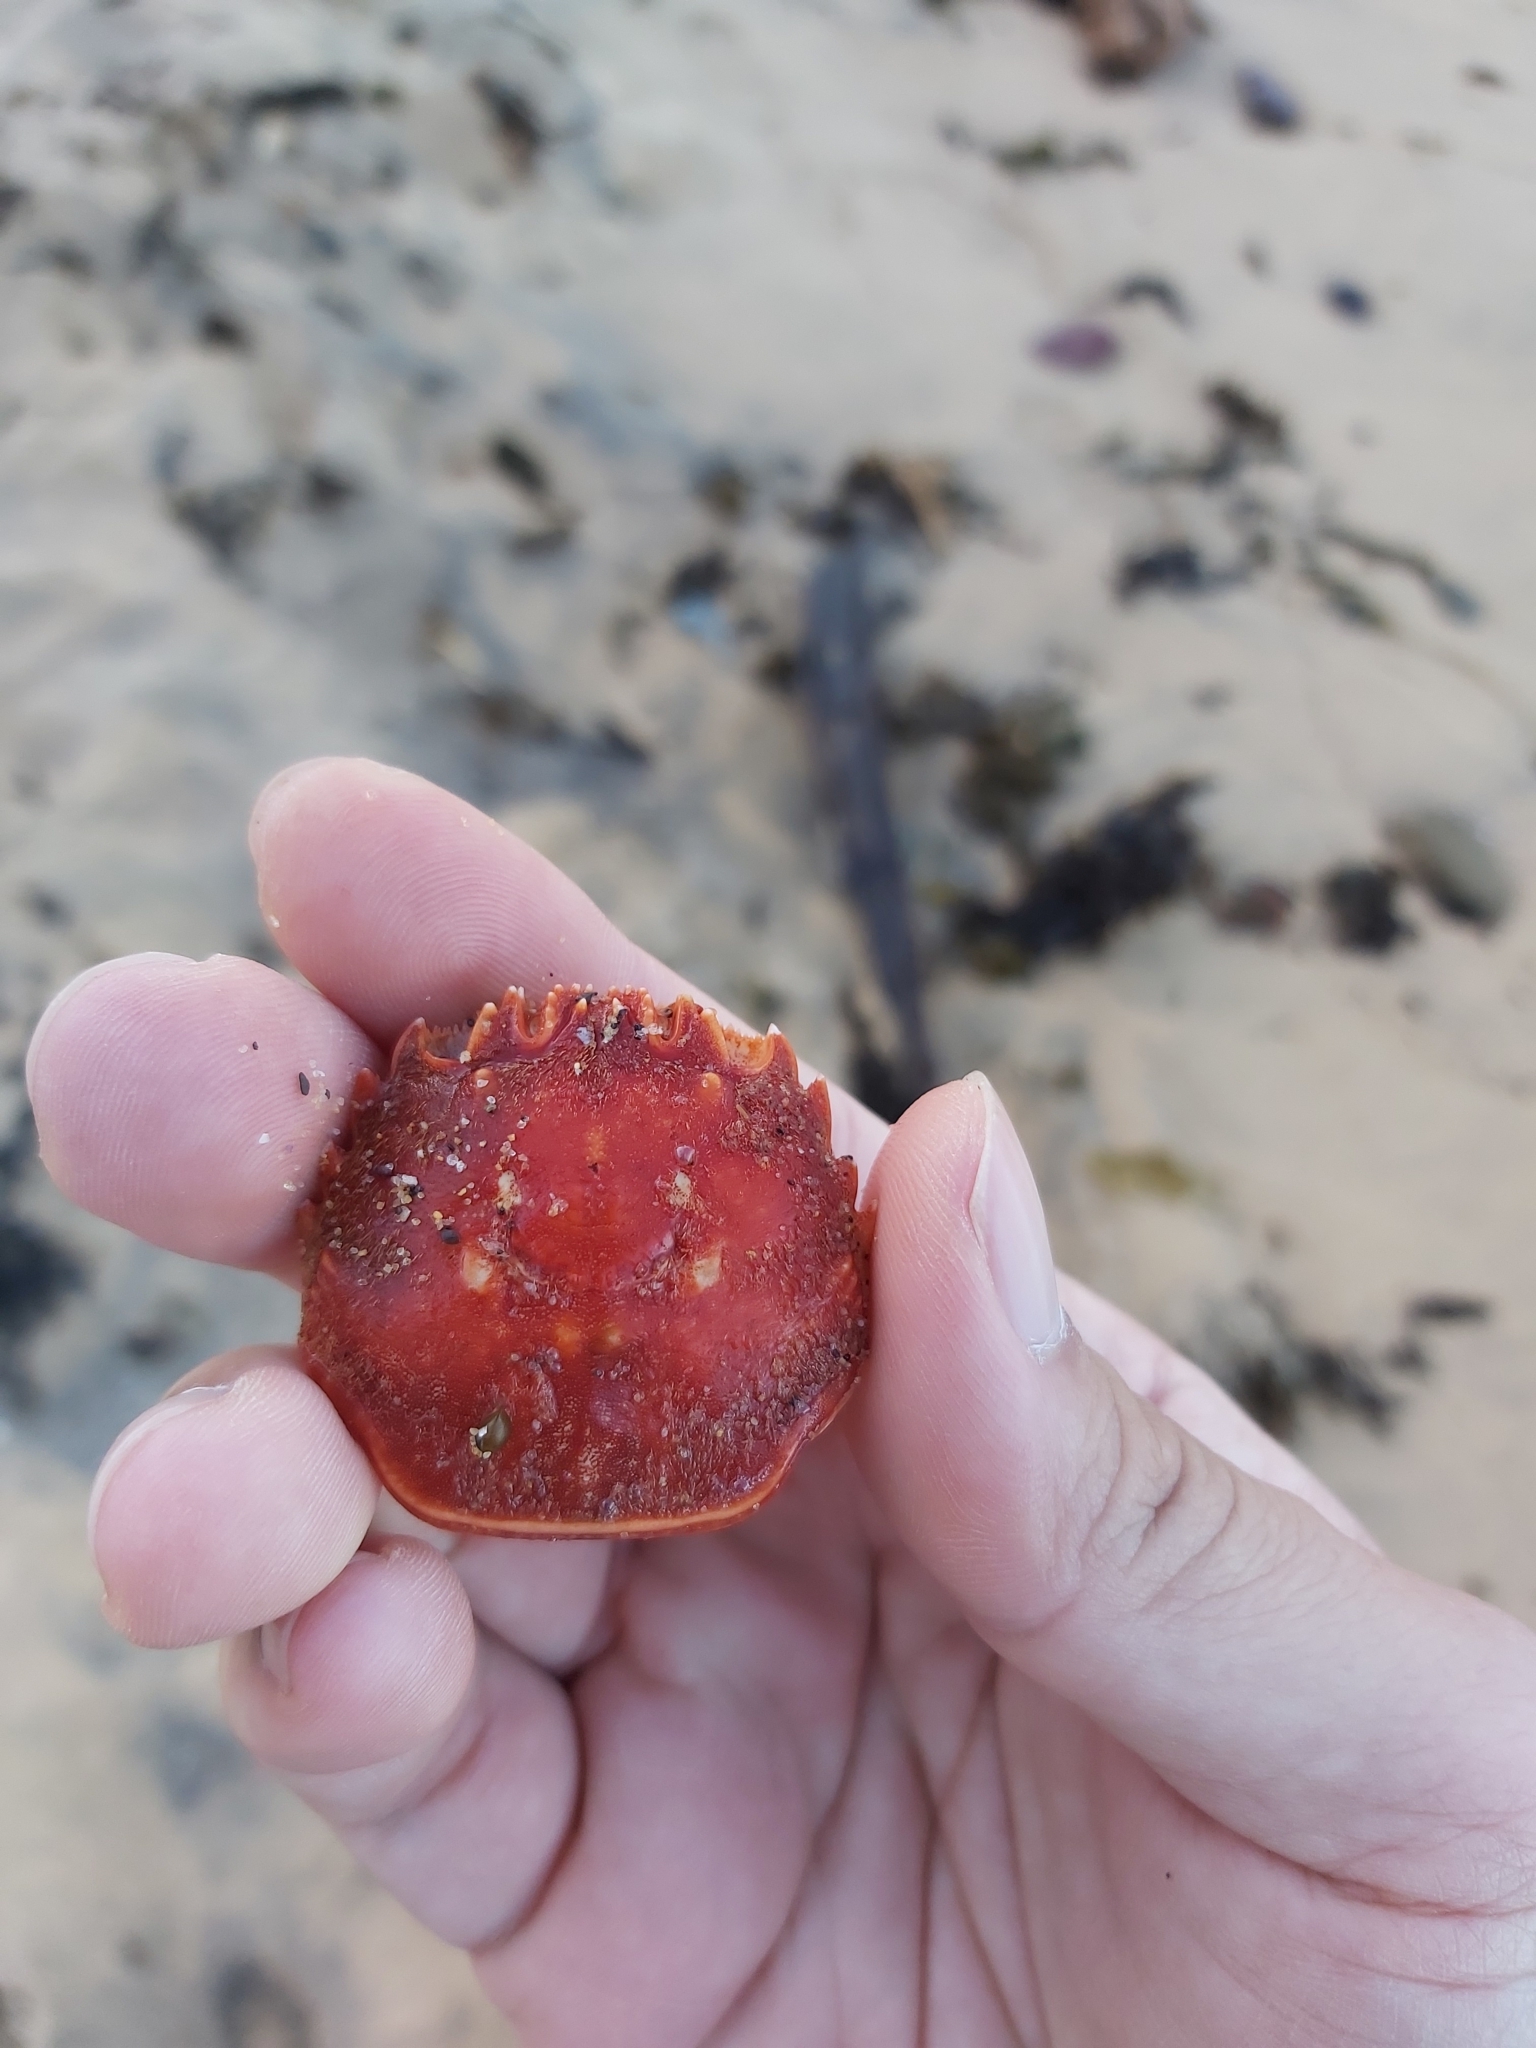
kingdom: Animalia
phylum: Arthropoda
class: Malacostraca
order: Decapoda
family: Plagusiidae
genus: Guinusia
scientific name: Guinusia chabrus
